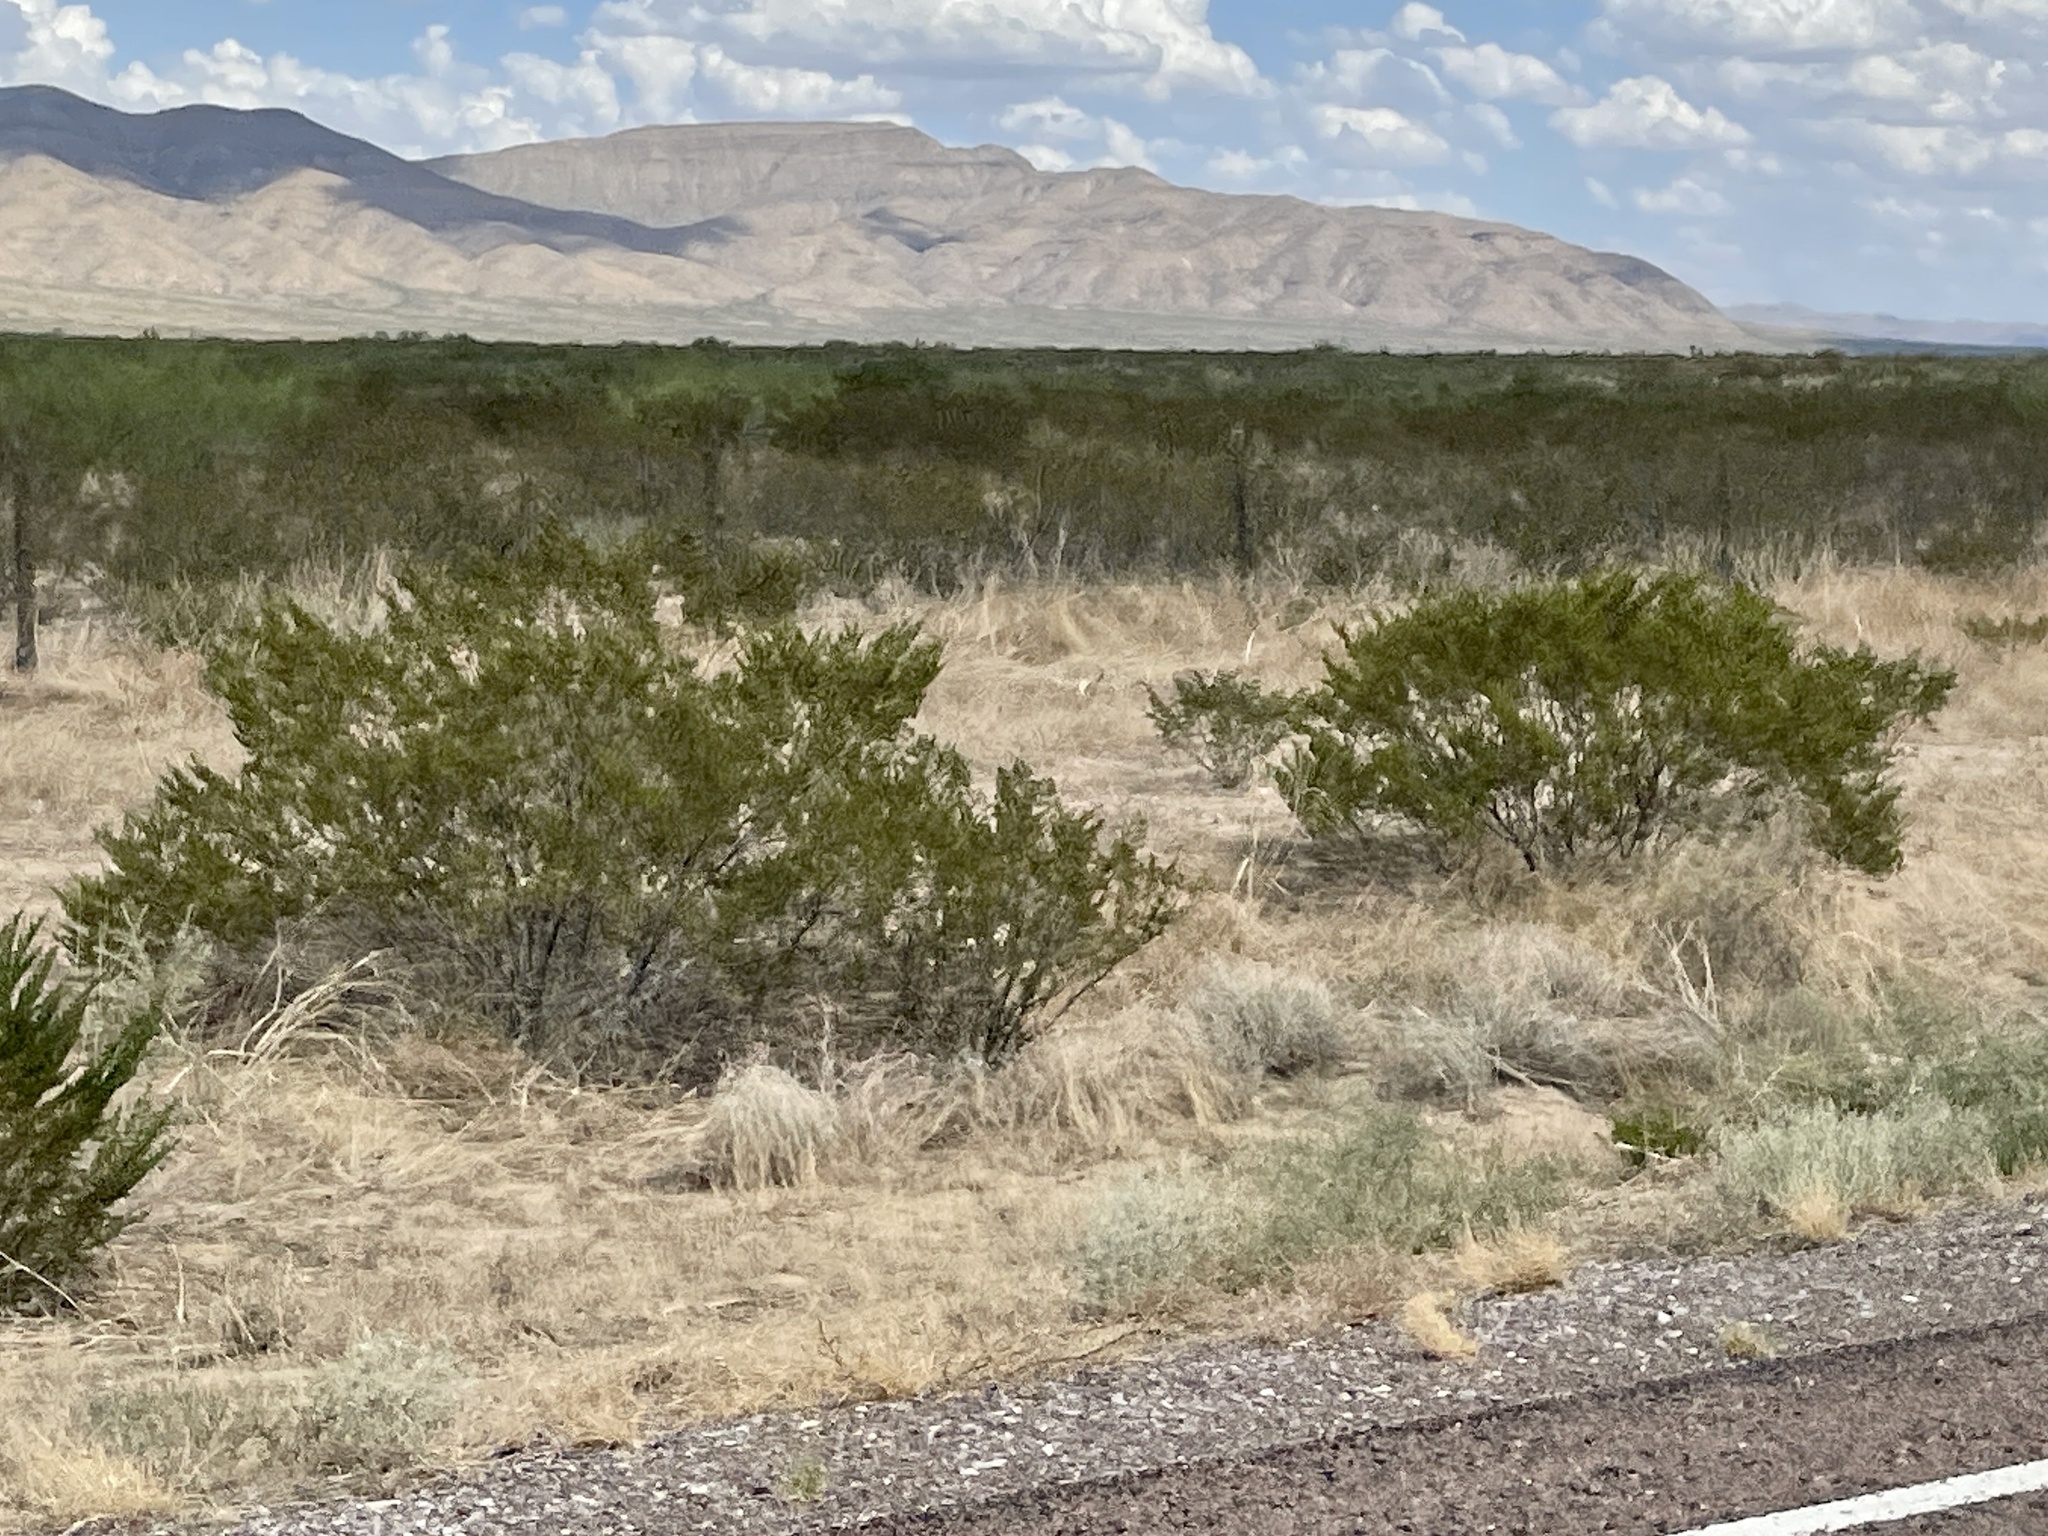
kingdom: Plantae
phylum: Tracheophyta
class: Magnoliopsida
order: Zygophyllales
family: Zygophyllaceae
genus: Larrea
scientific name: Larrea tridentata
